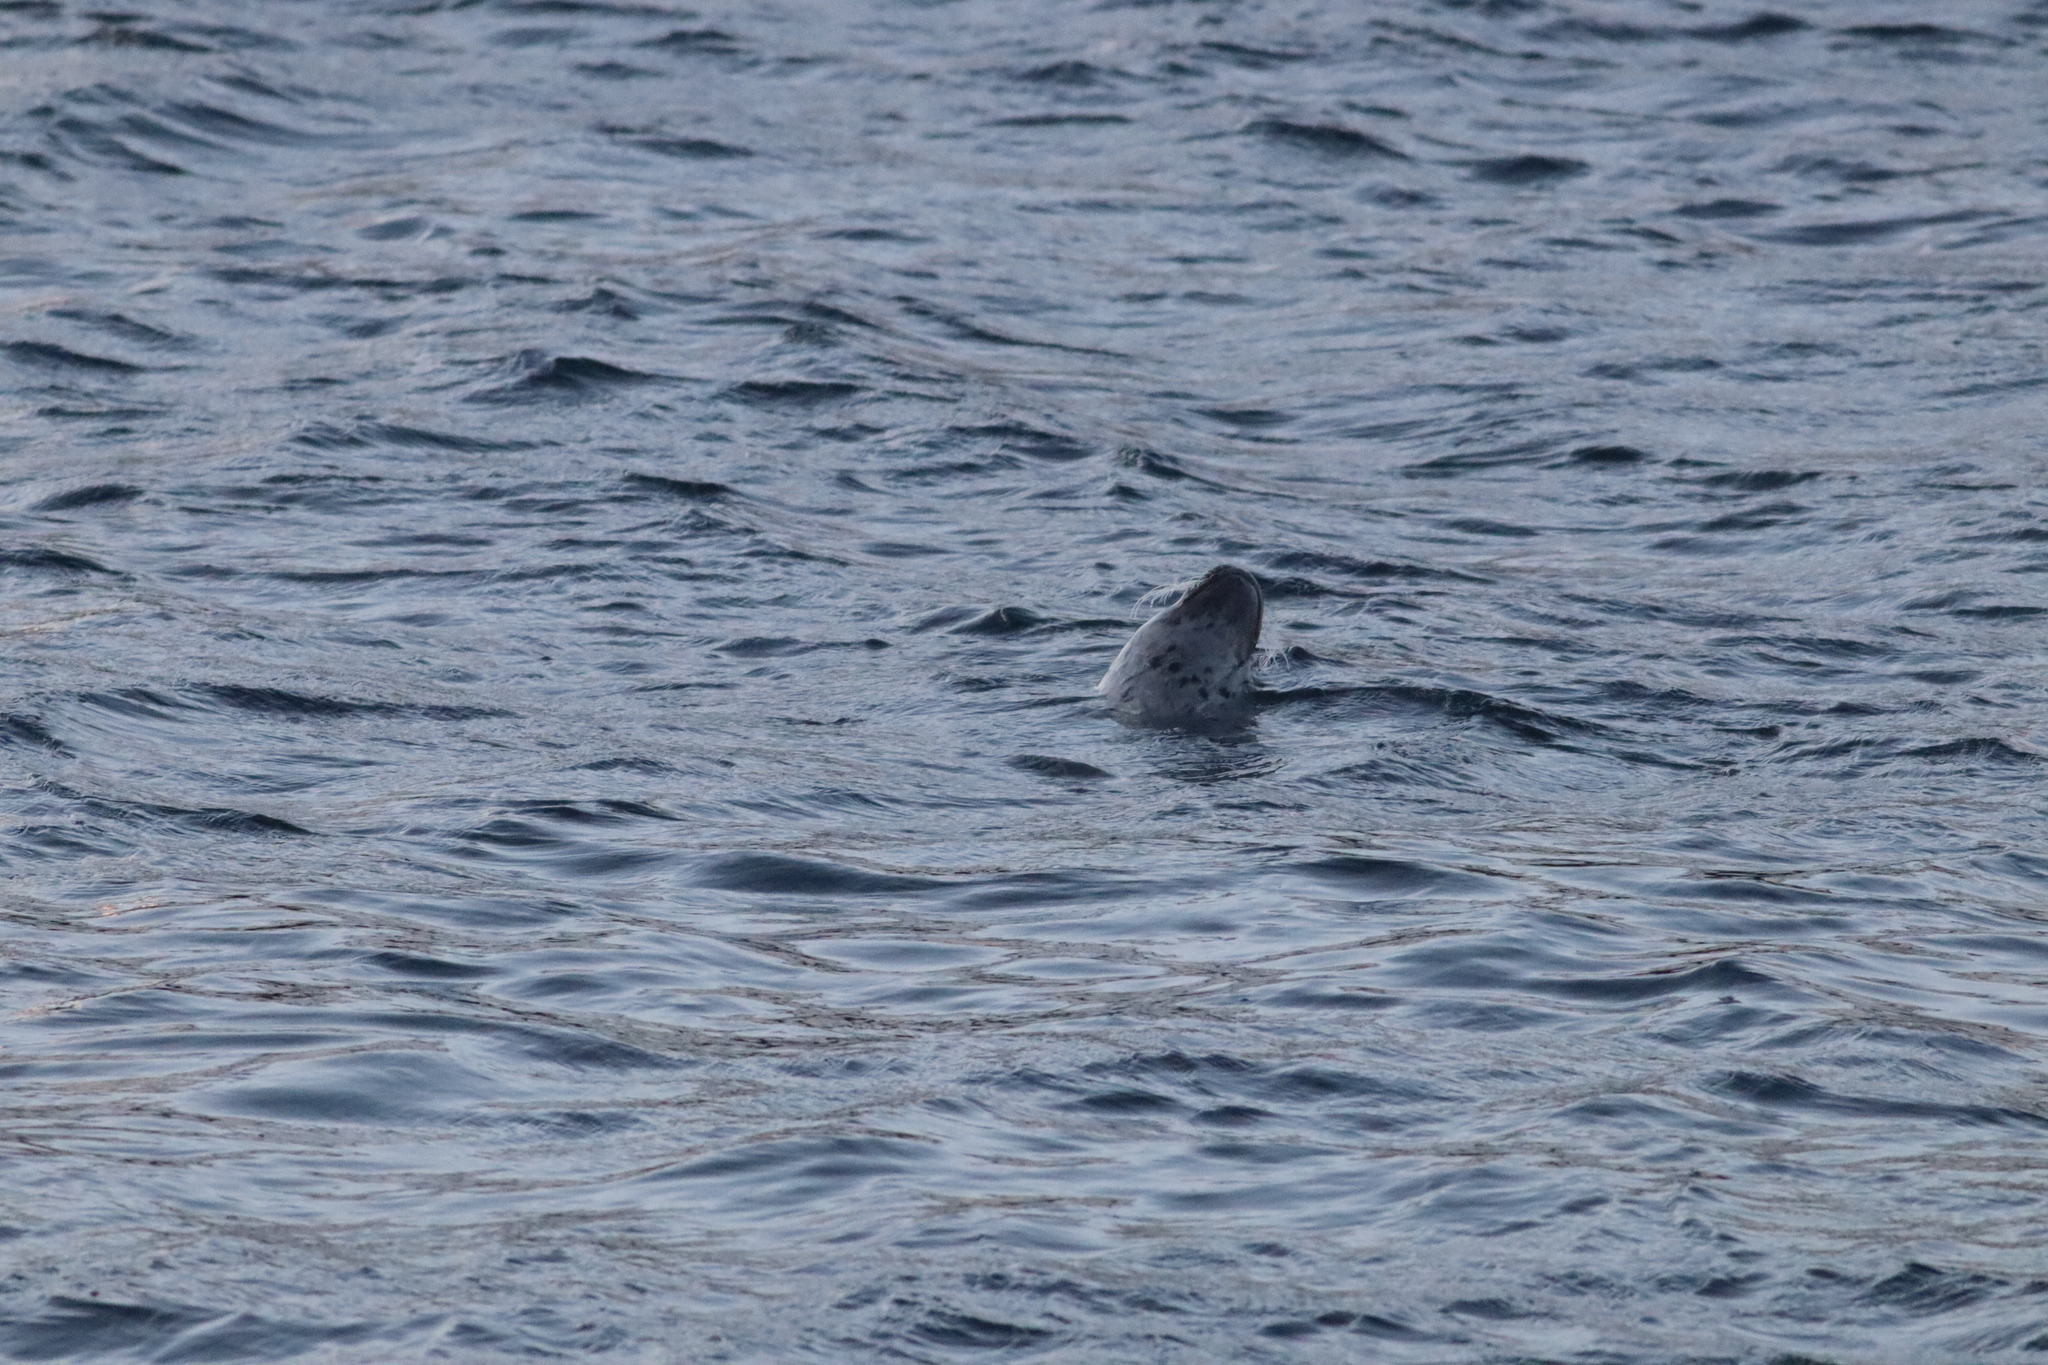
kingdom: Animalia
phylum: Chordata
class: Mammalia
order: Carnivora
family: Phocidae
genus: Phoca
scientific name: Phoca vitulina
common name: Harbor seal
